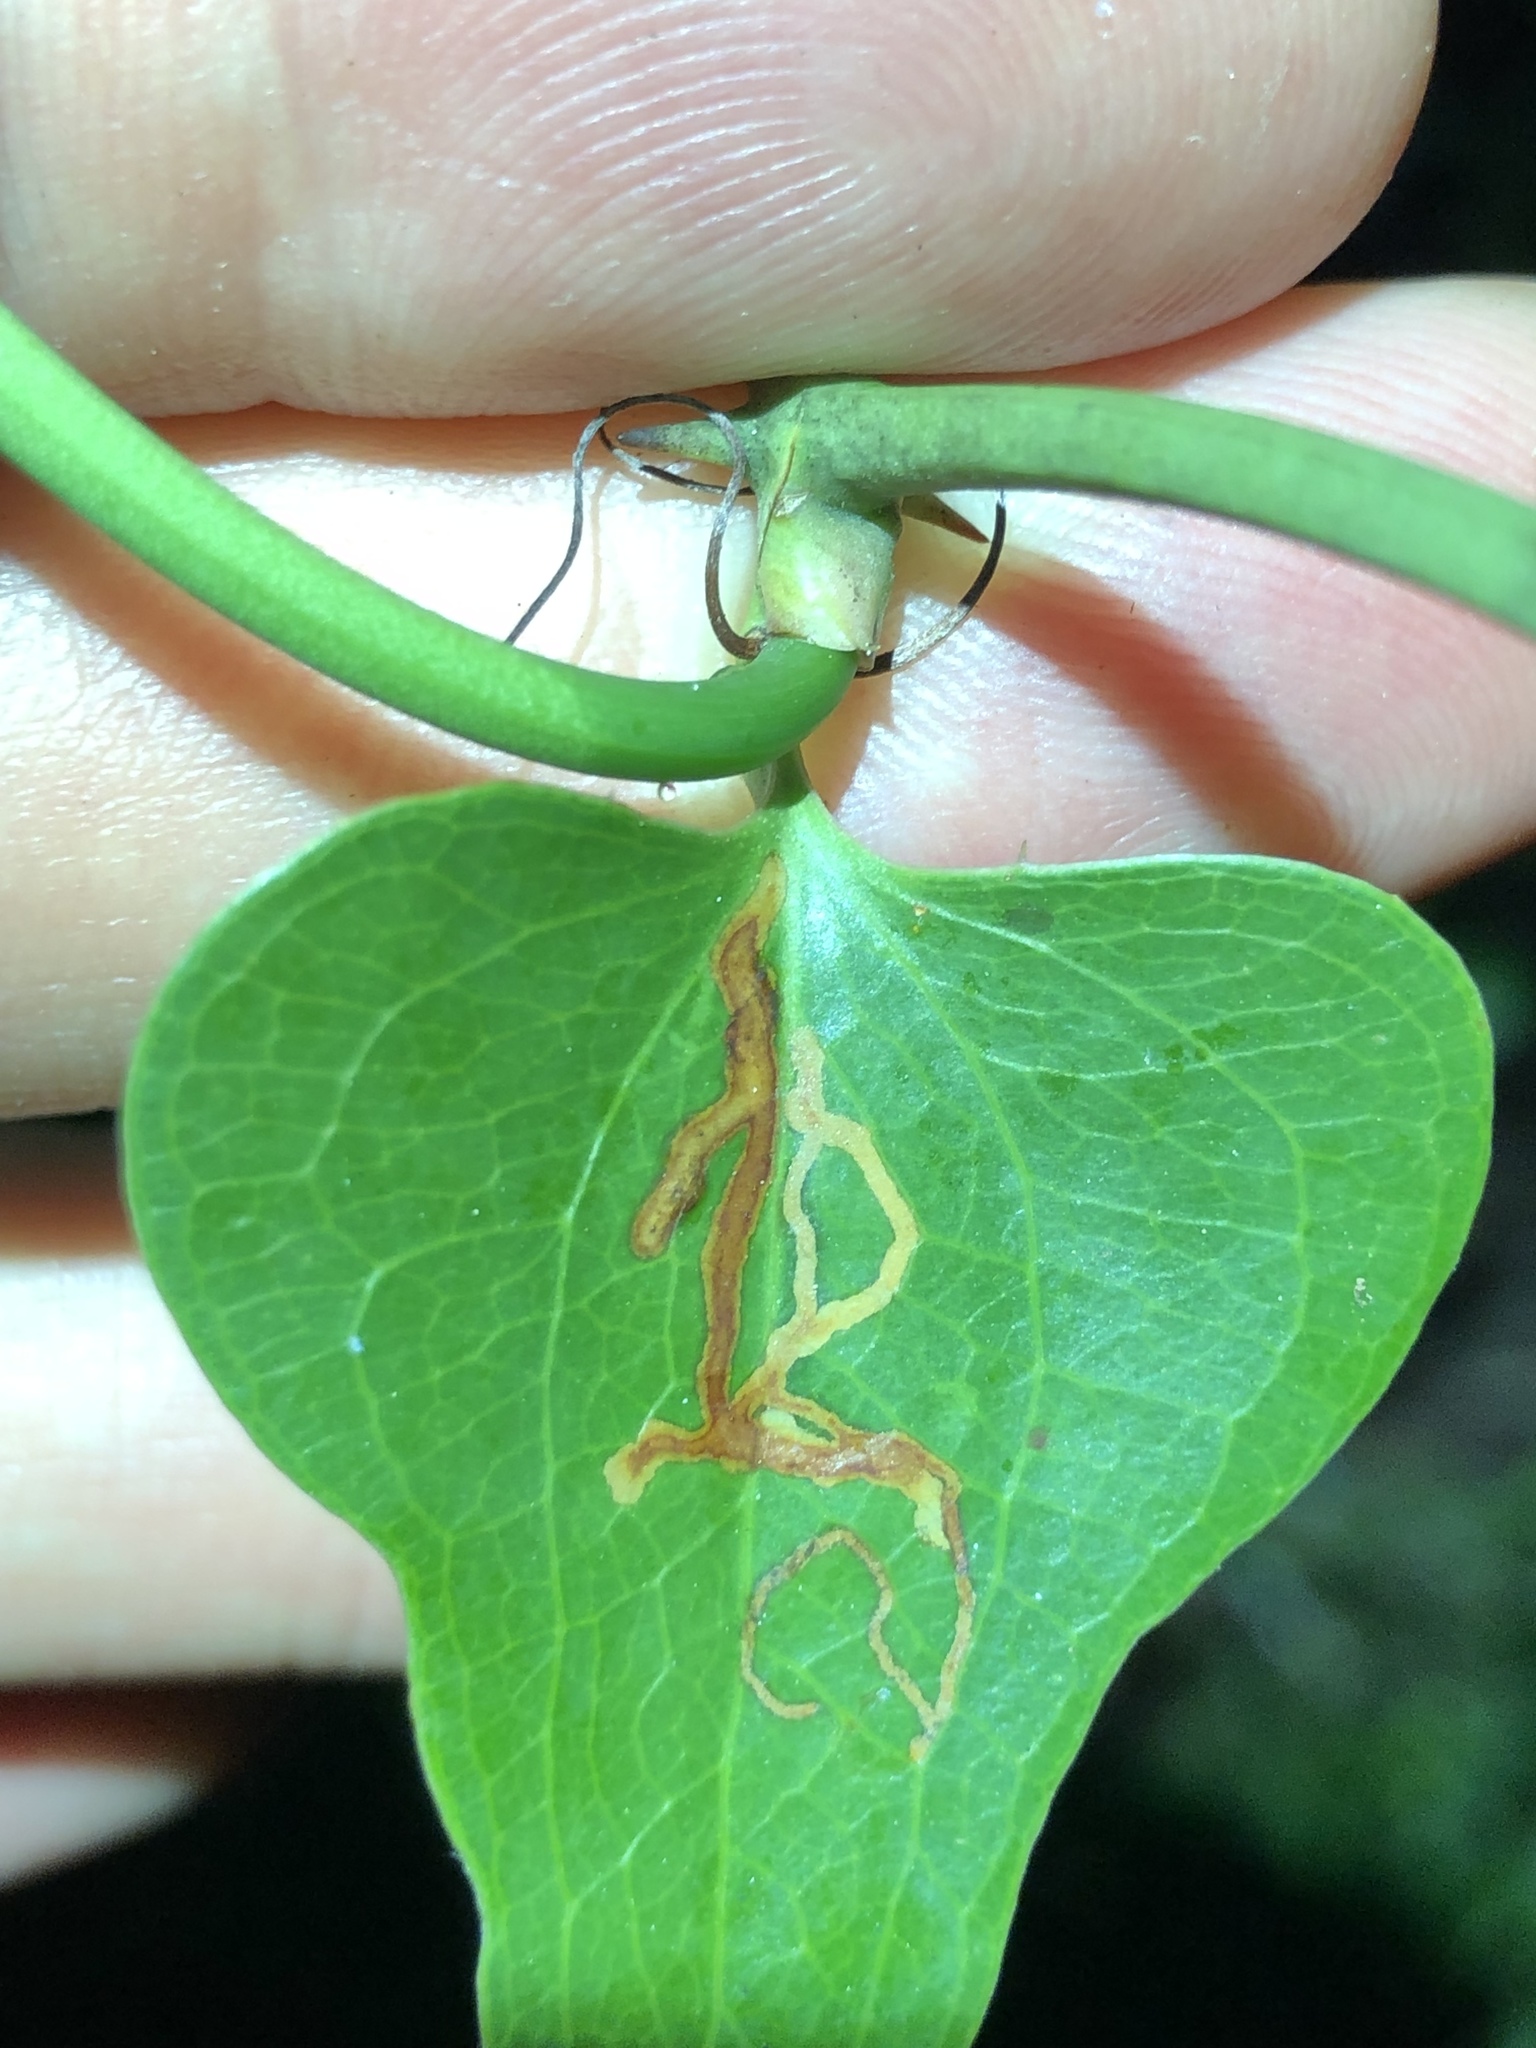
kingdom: Animalia
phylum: Arthropoda
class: Insecta
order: Lepidoptera
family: Gracillariidae
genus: Marmara
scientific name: Marmara smilacisella
